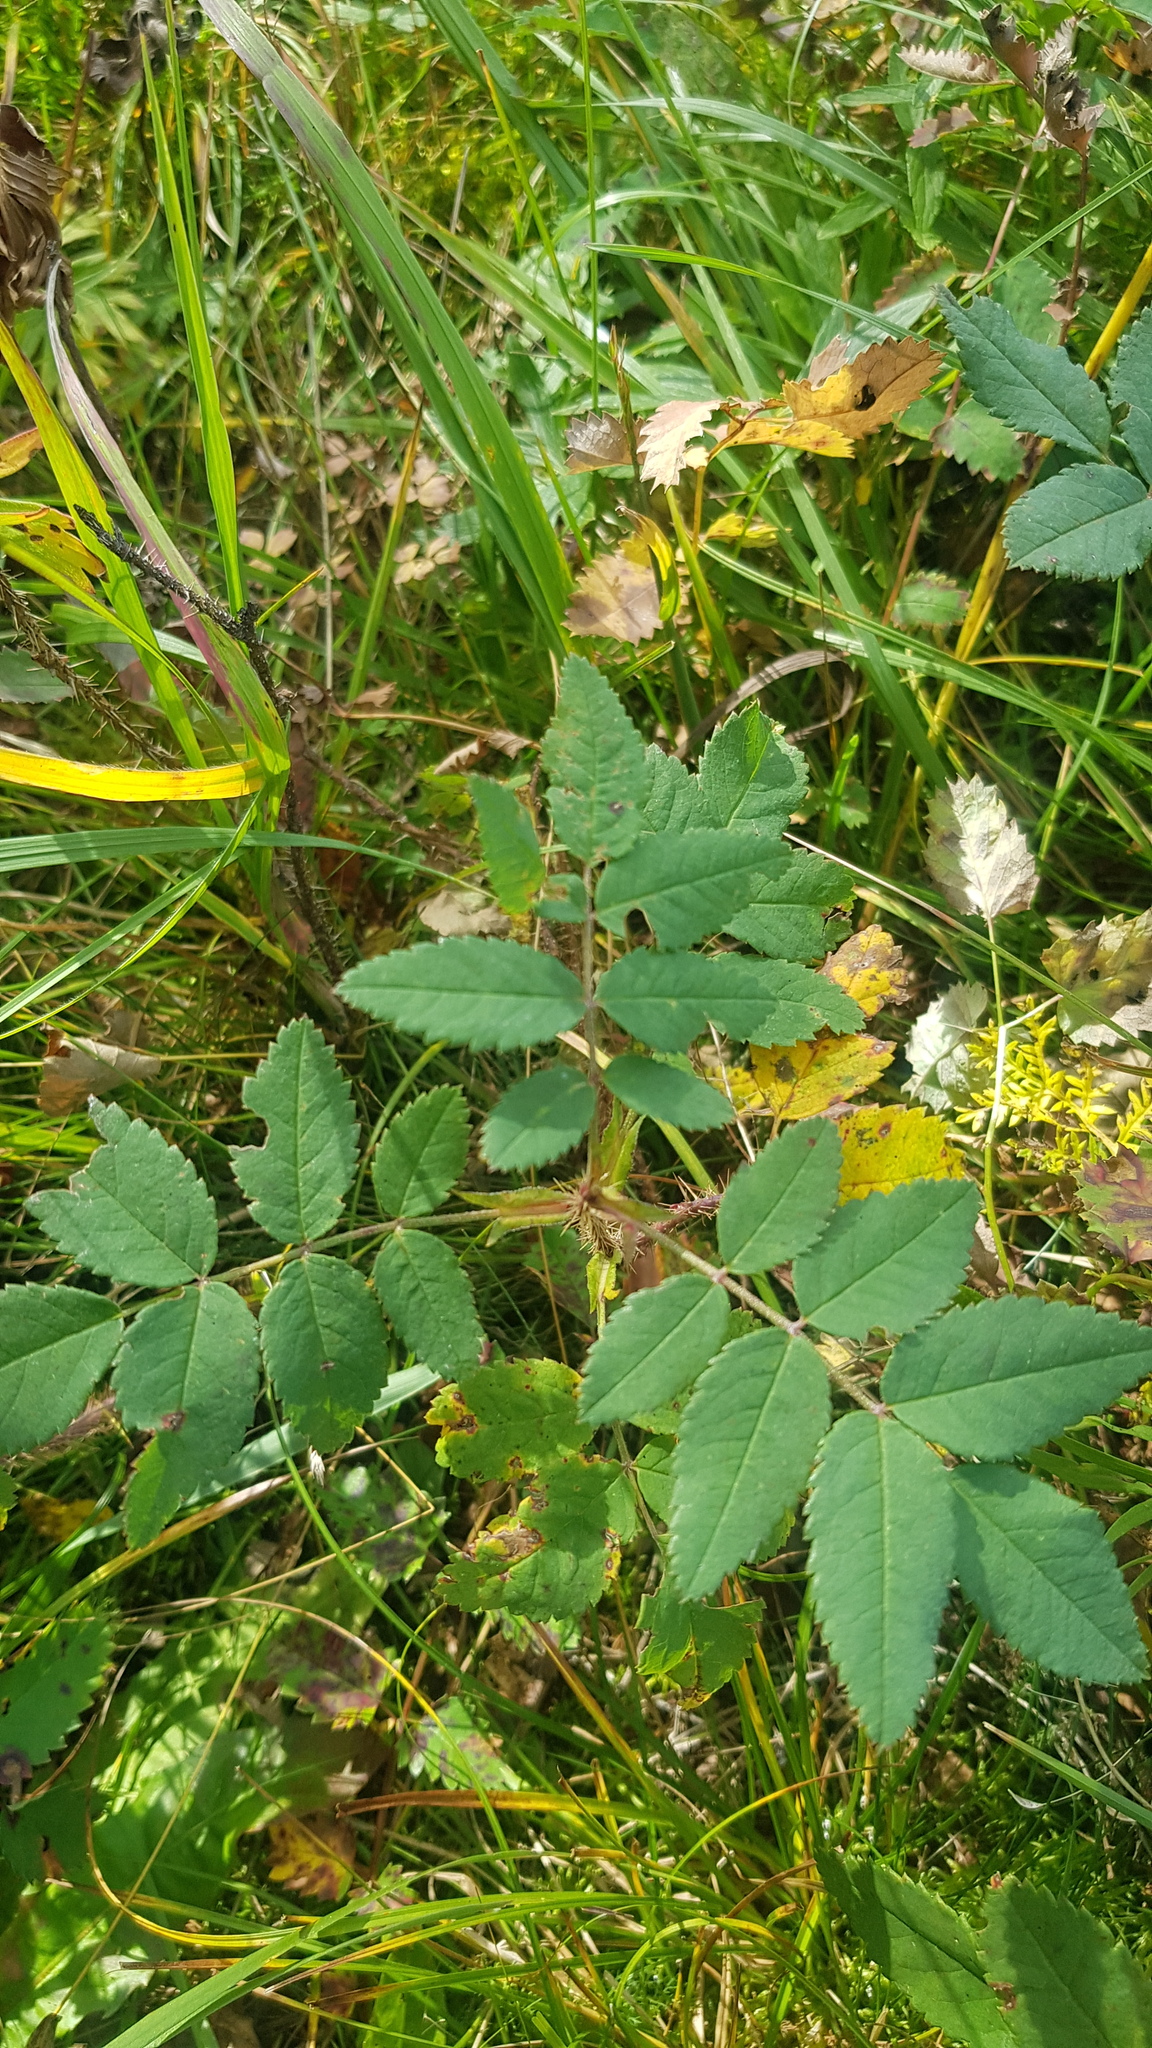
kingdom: Plantae
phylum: Tracheophyta
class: Magnoliopsida
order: Rosales
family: Rosaceae
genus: Rosa
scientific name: Rosa acicularis
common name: Prickly rose
